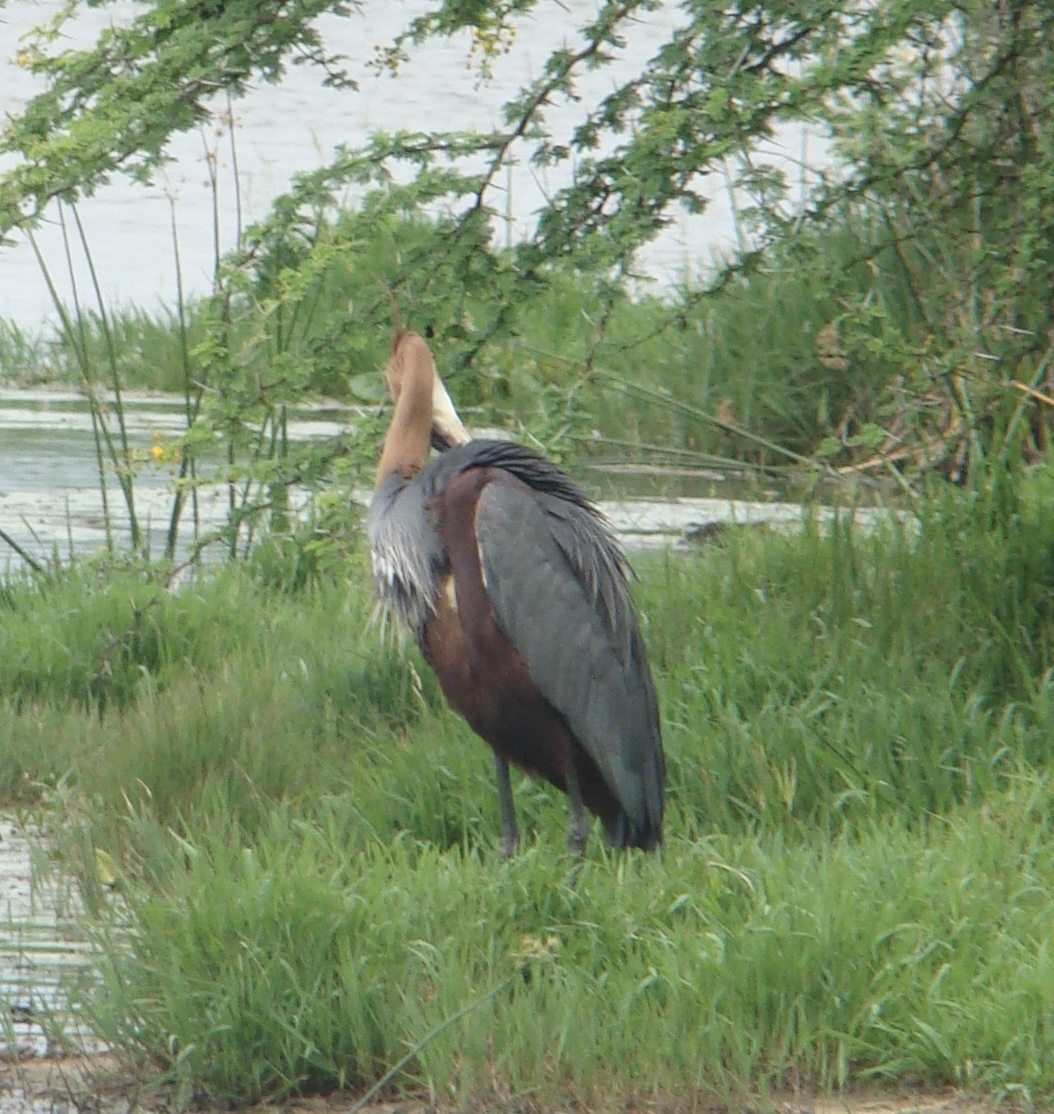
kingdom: Animalia
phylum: Chordata
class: Aves
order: Pelecaniformes
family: Ardeidae
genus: Ardea
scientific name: Ardea goliath
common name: Goliath heron
